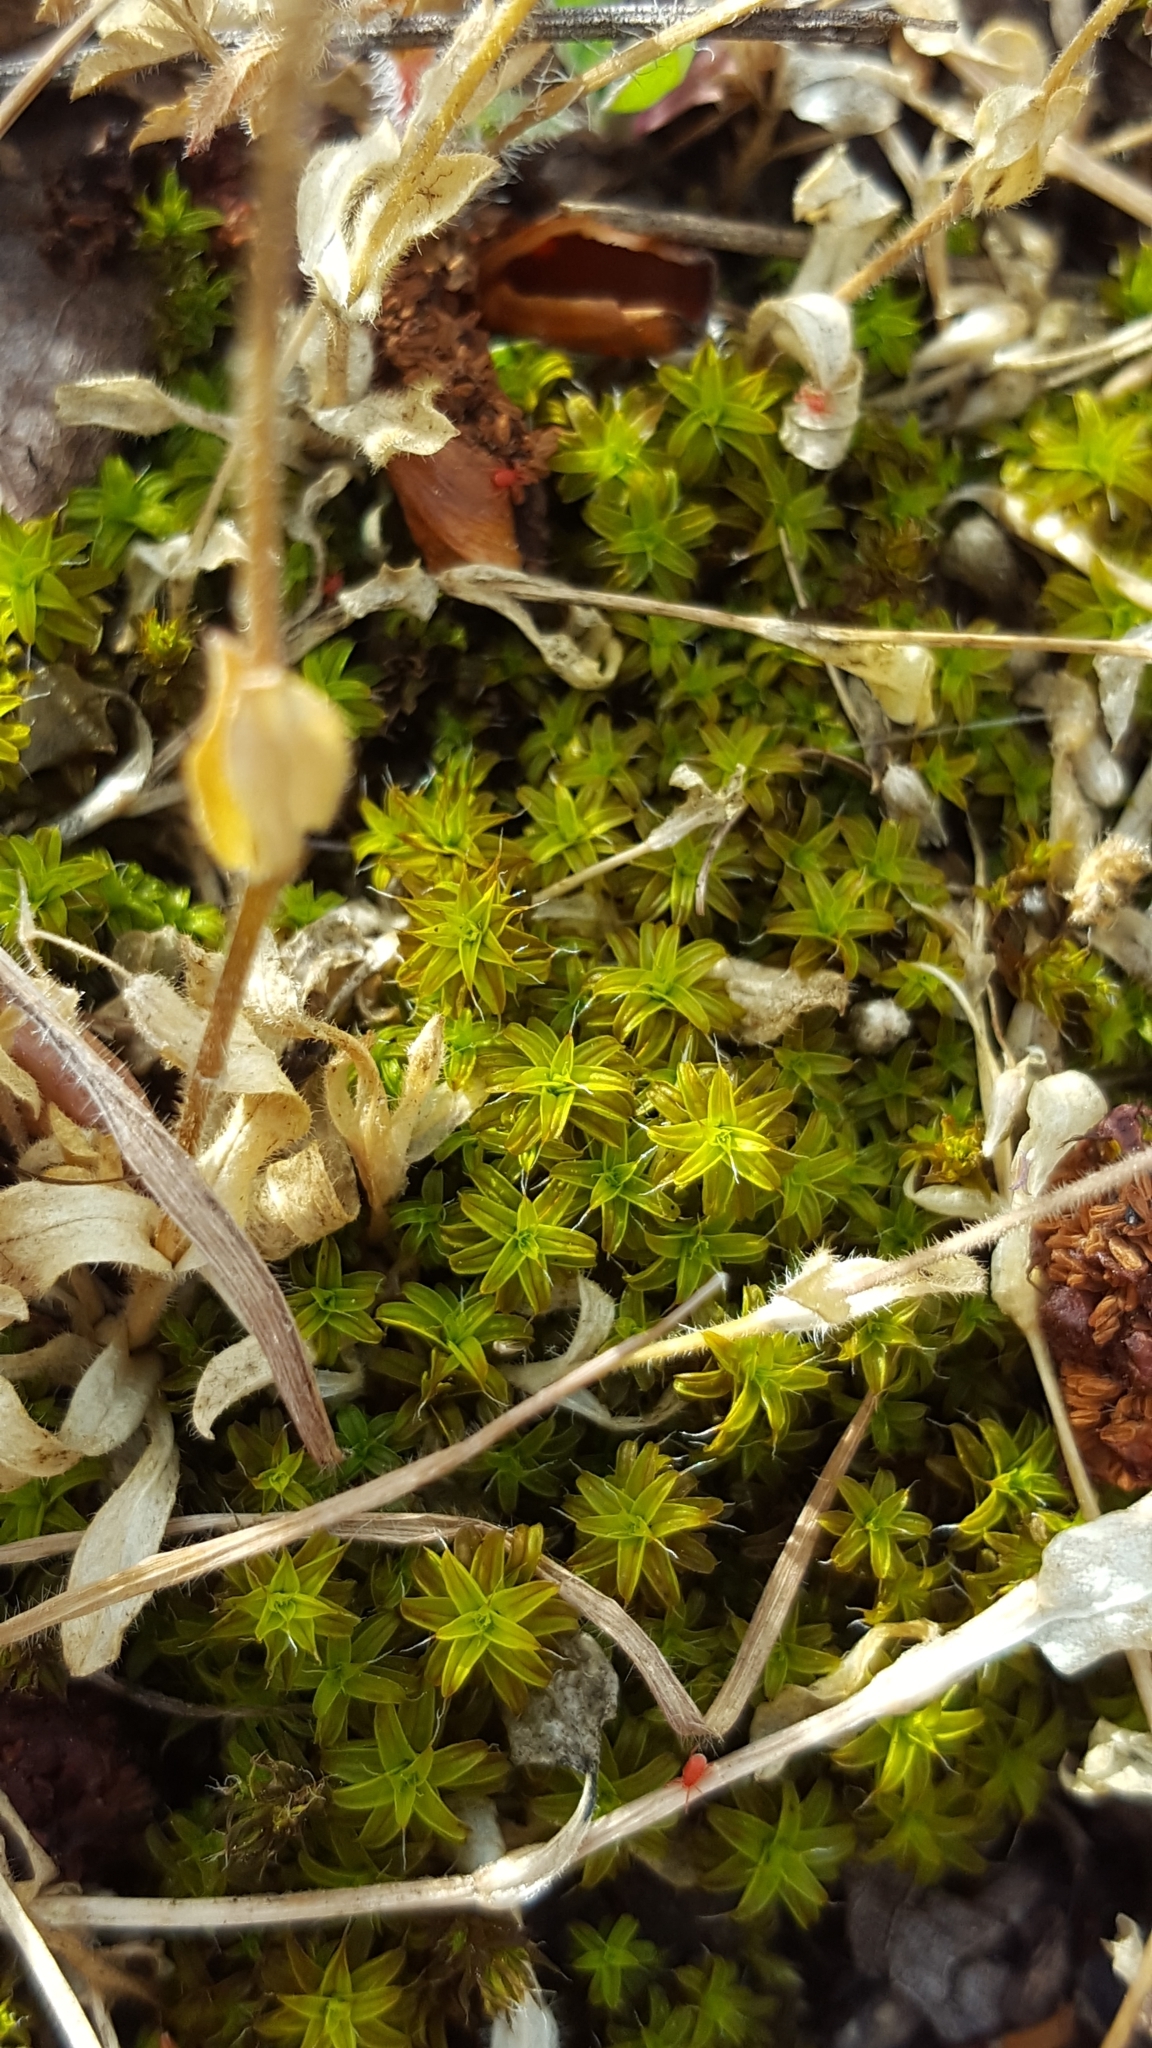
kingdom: Plantae
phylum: Bryophyta
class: Bryopsida
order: Pottiales
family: Pottiaceae
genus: Syntrichia
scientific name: Syntrichia ruralis
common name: Sidewalk screw moss
